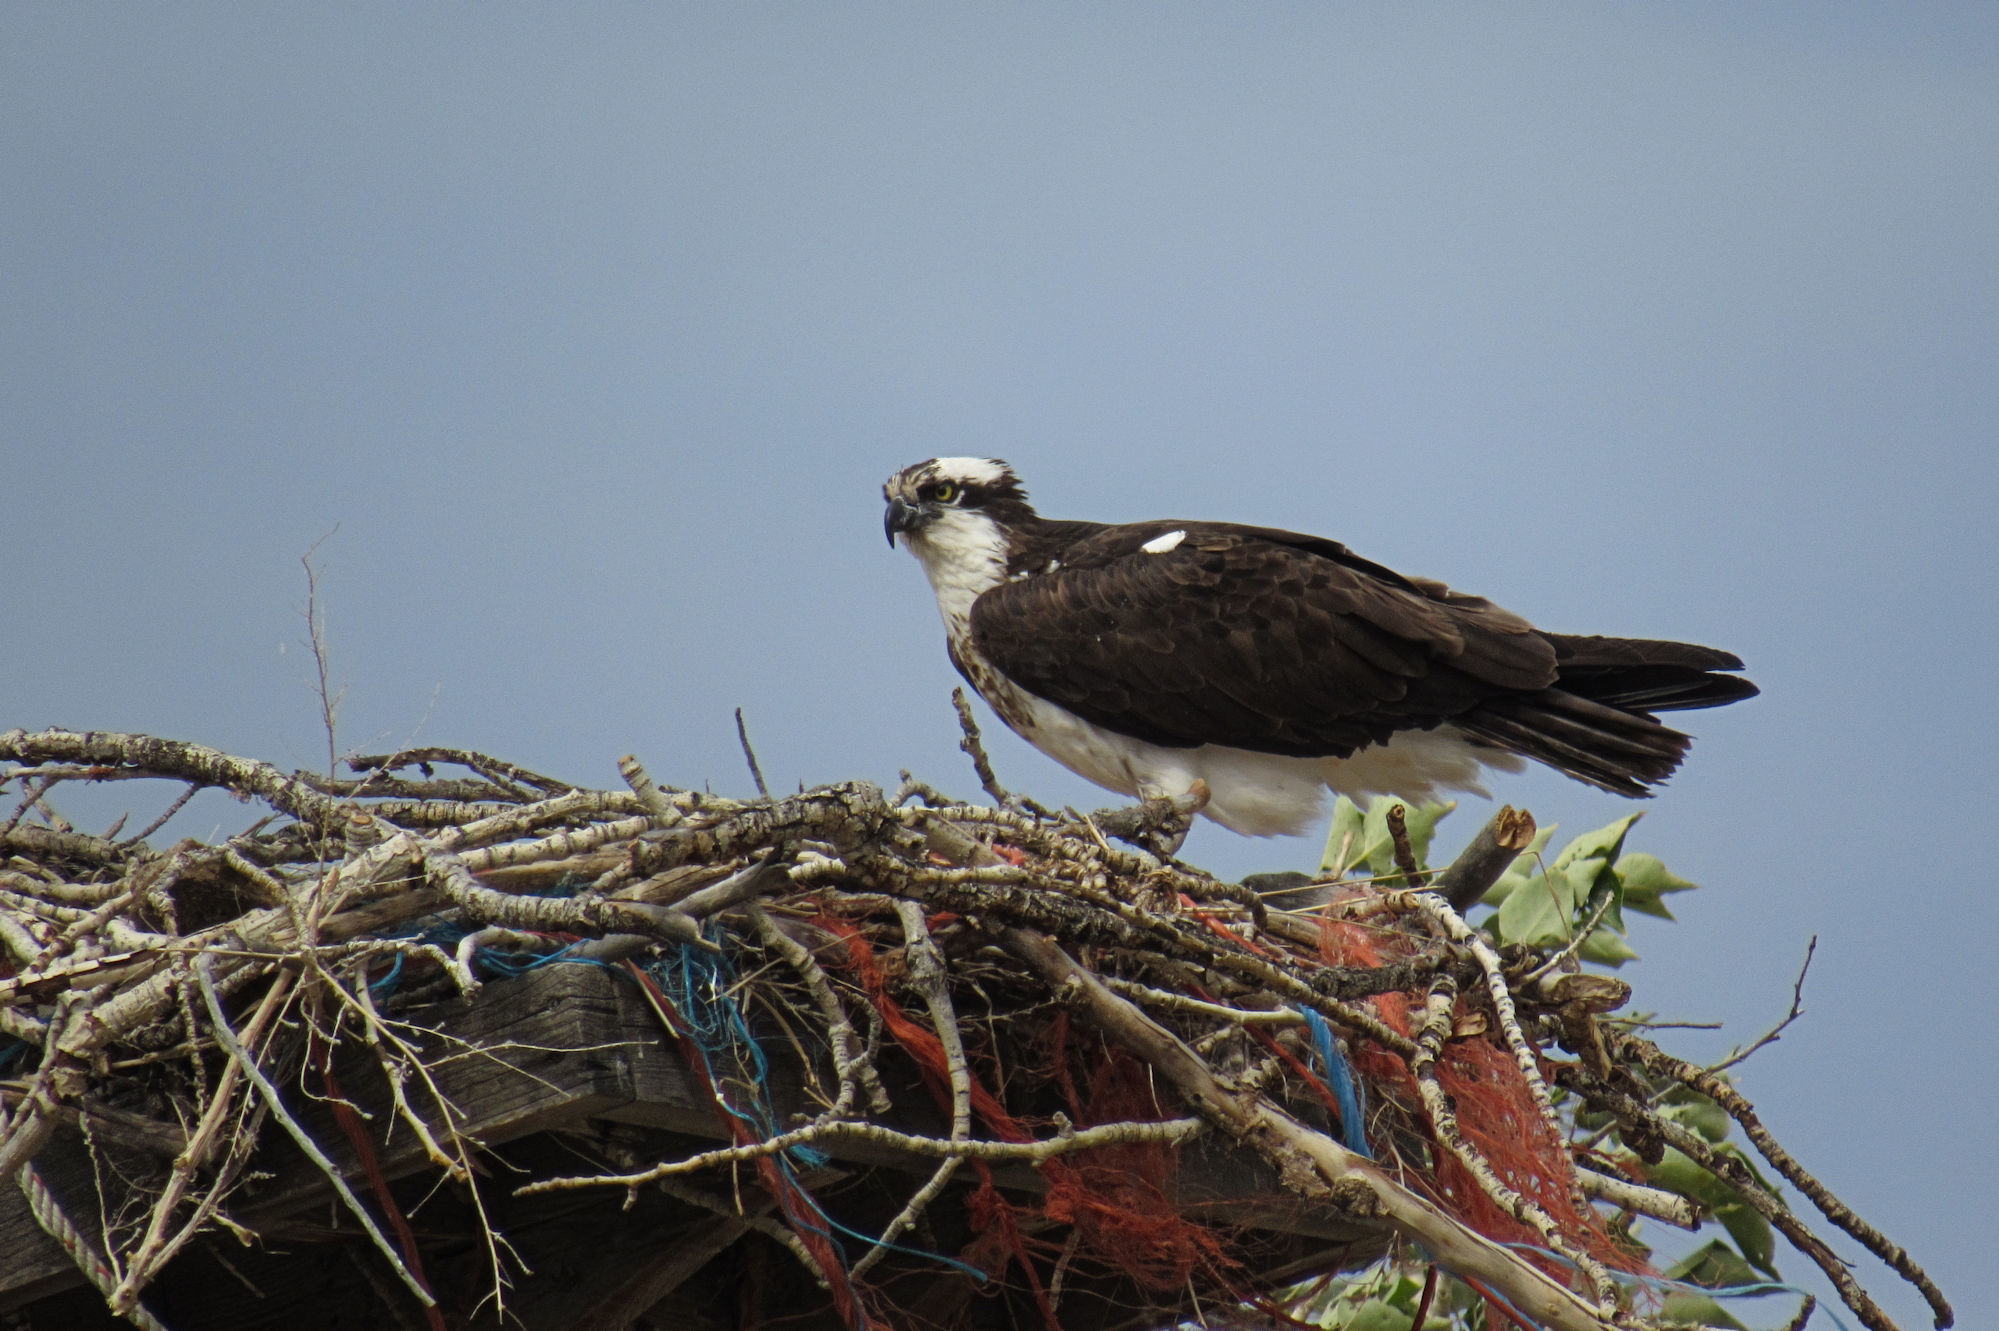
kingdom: Animalia
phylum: Chordata
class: Aves
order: Accipitriformes
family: Pandionidae
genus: Pandion
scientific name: Pandion haliaetus
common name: Osprey
